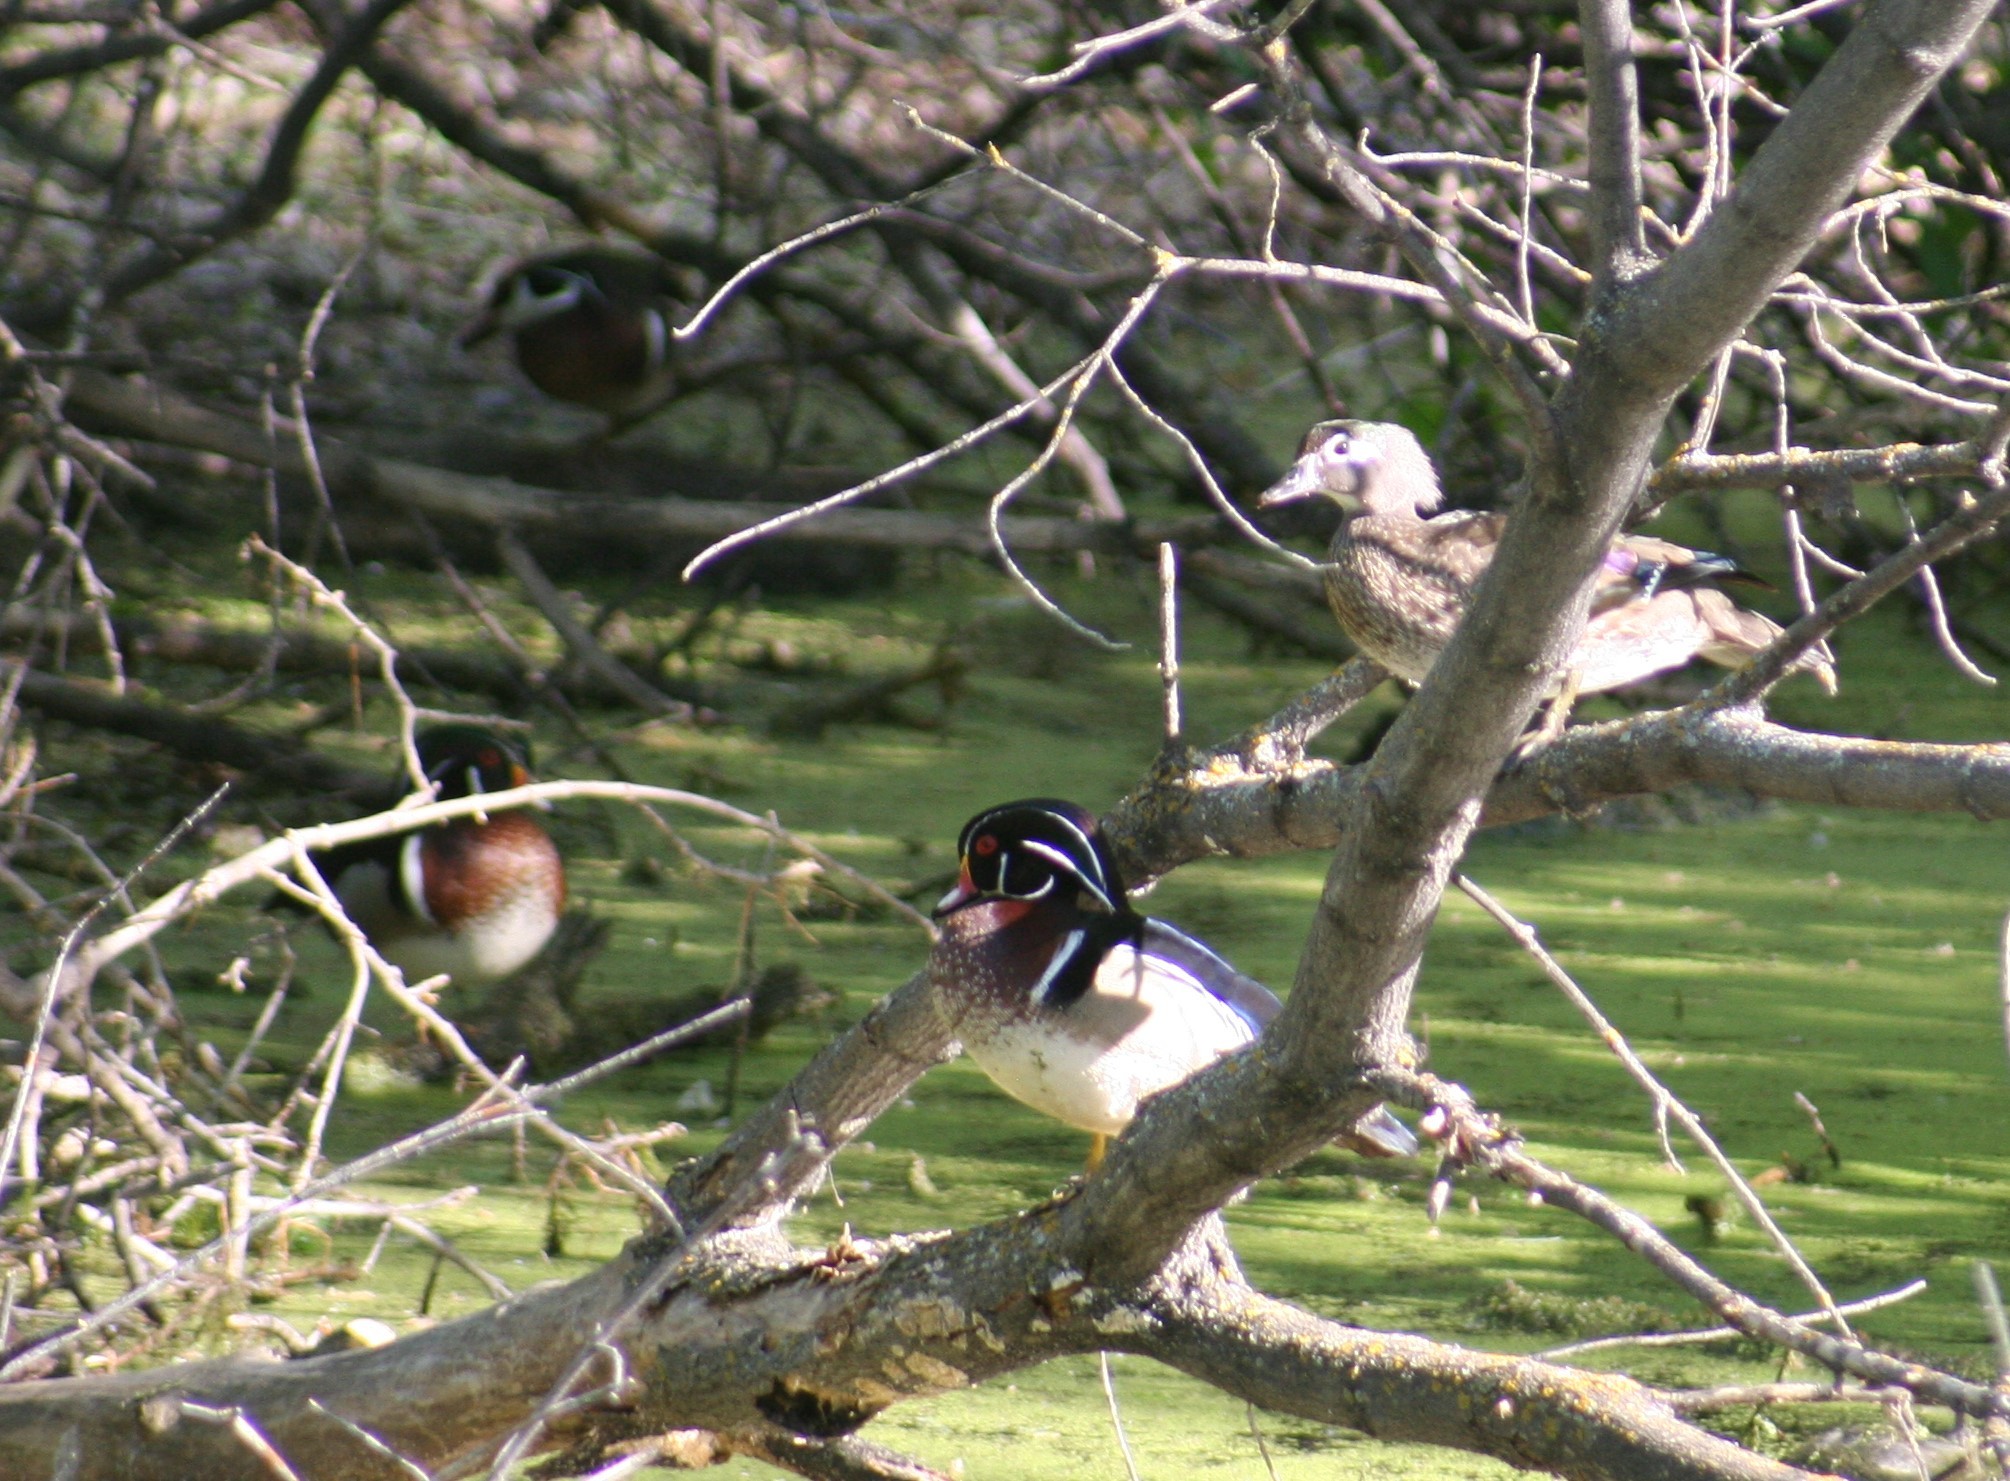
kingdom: Animalia
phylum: Chordata
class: Aves
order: Anseriformes
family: Anatidae
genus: Aix
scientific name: Aix sponsa
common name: Wood duck
